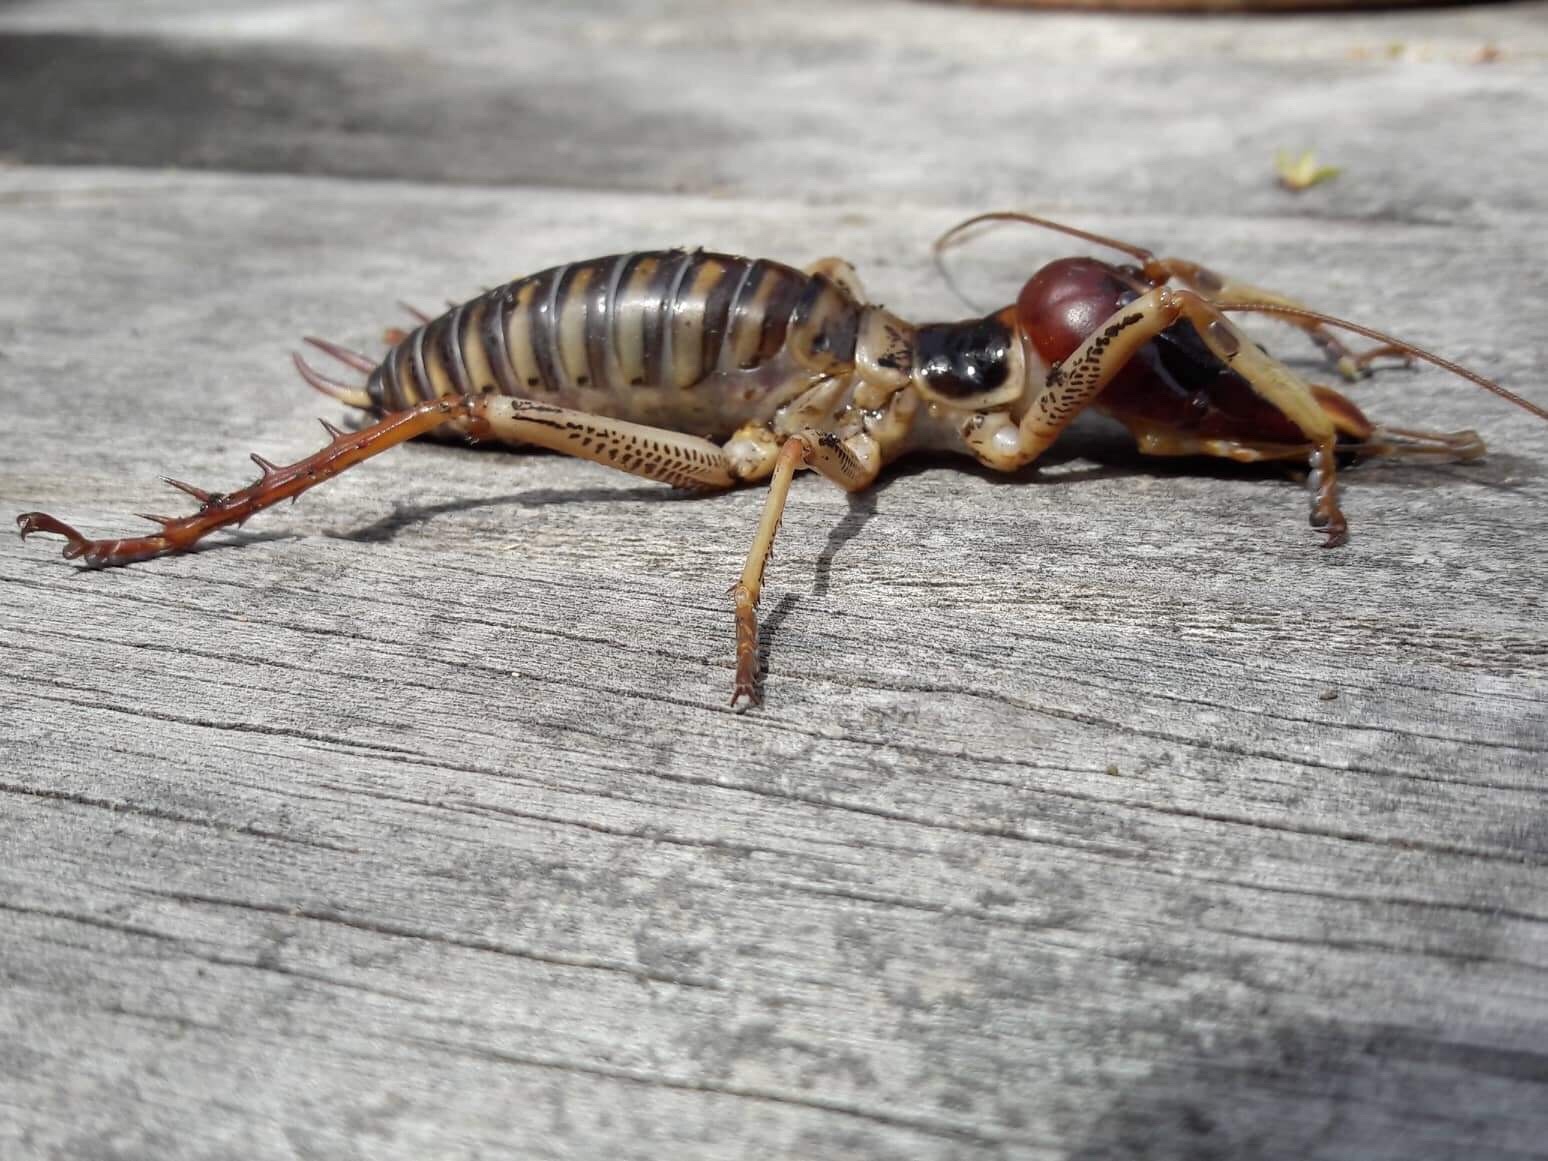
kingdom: Animalia
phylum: Arthropoda
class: Insecta
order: Orthoptera
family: Anostostomatidae
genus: Hemideina
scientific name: Hemideina crassidens
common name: Wellington tree weta
